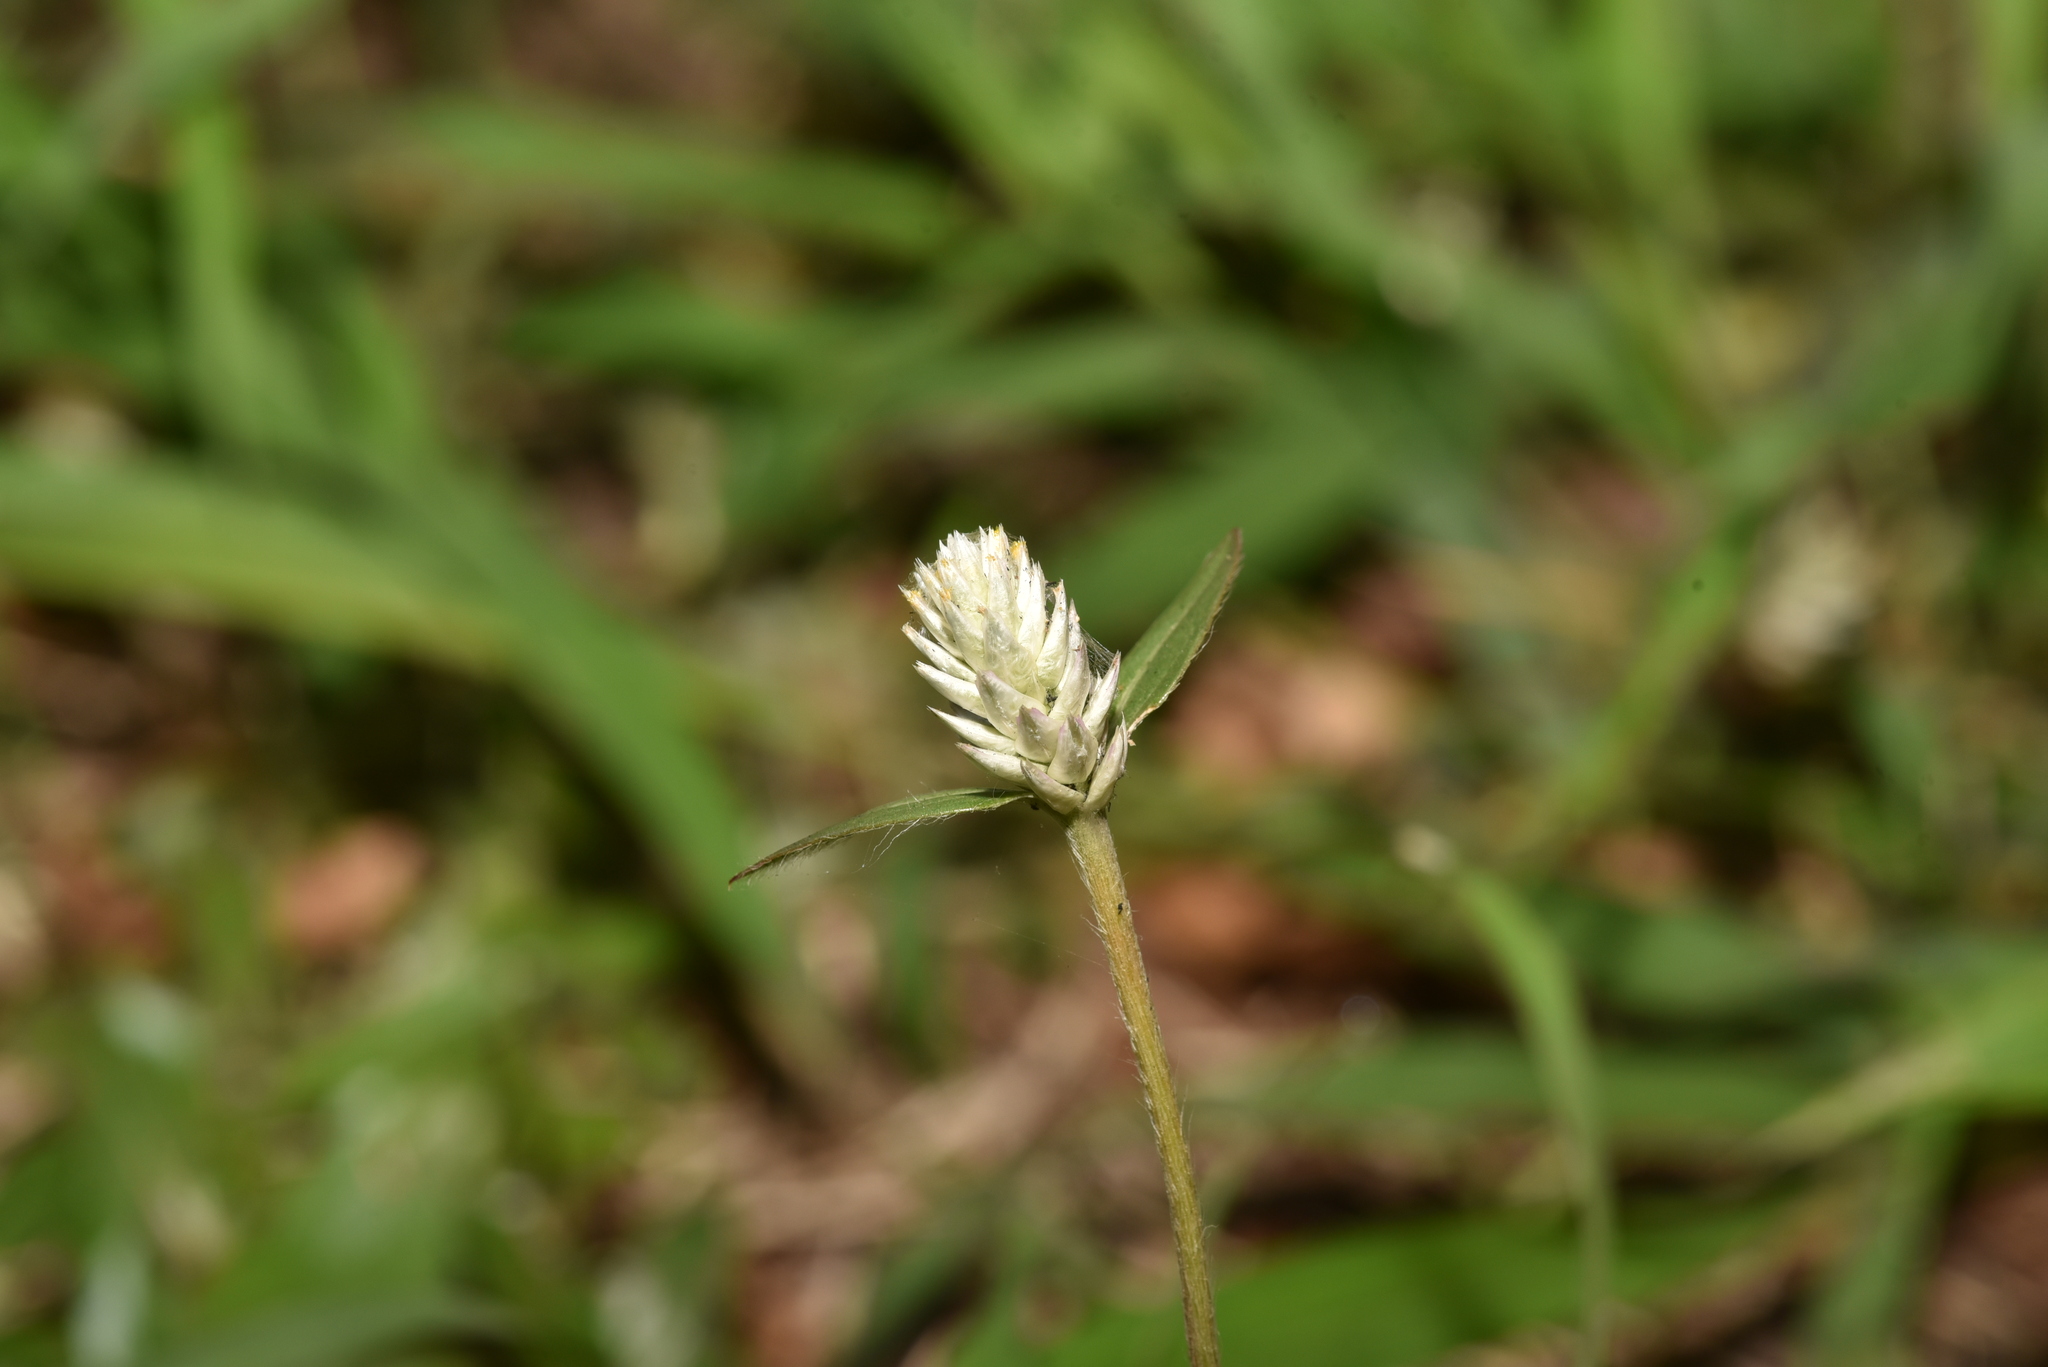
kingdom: Plantae
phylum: Tracheophyta
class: Magnoliopsida
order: Caryophyllales
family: Amaranthaceae
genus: Gomphrena
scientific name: Gomphrena celosioides
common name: Gomphrena-weed
